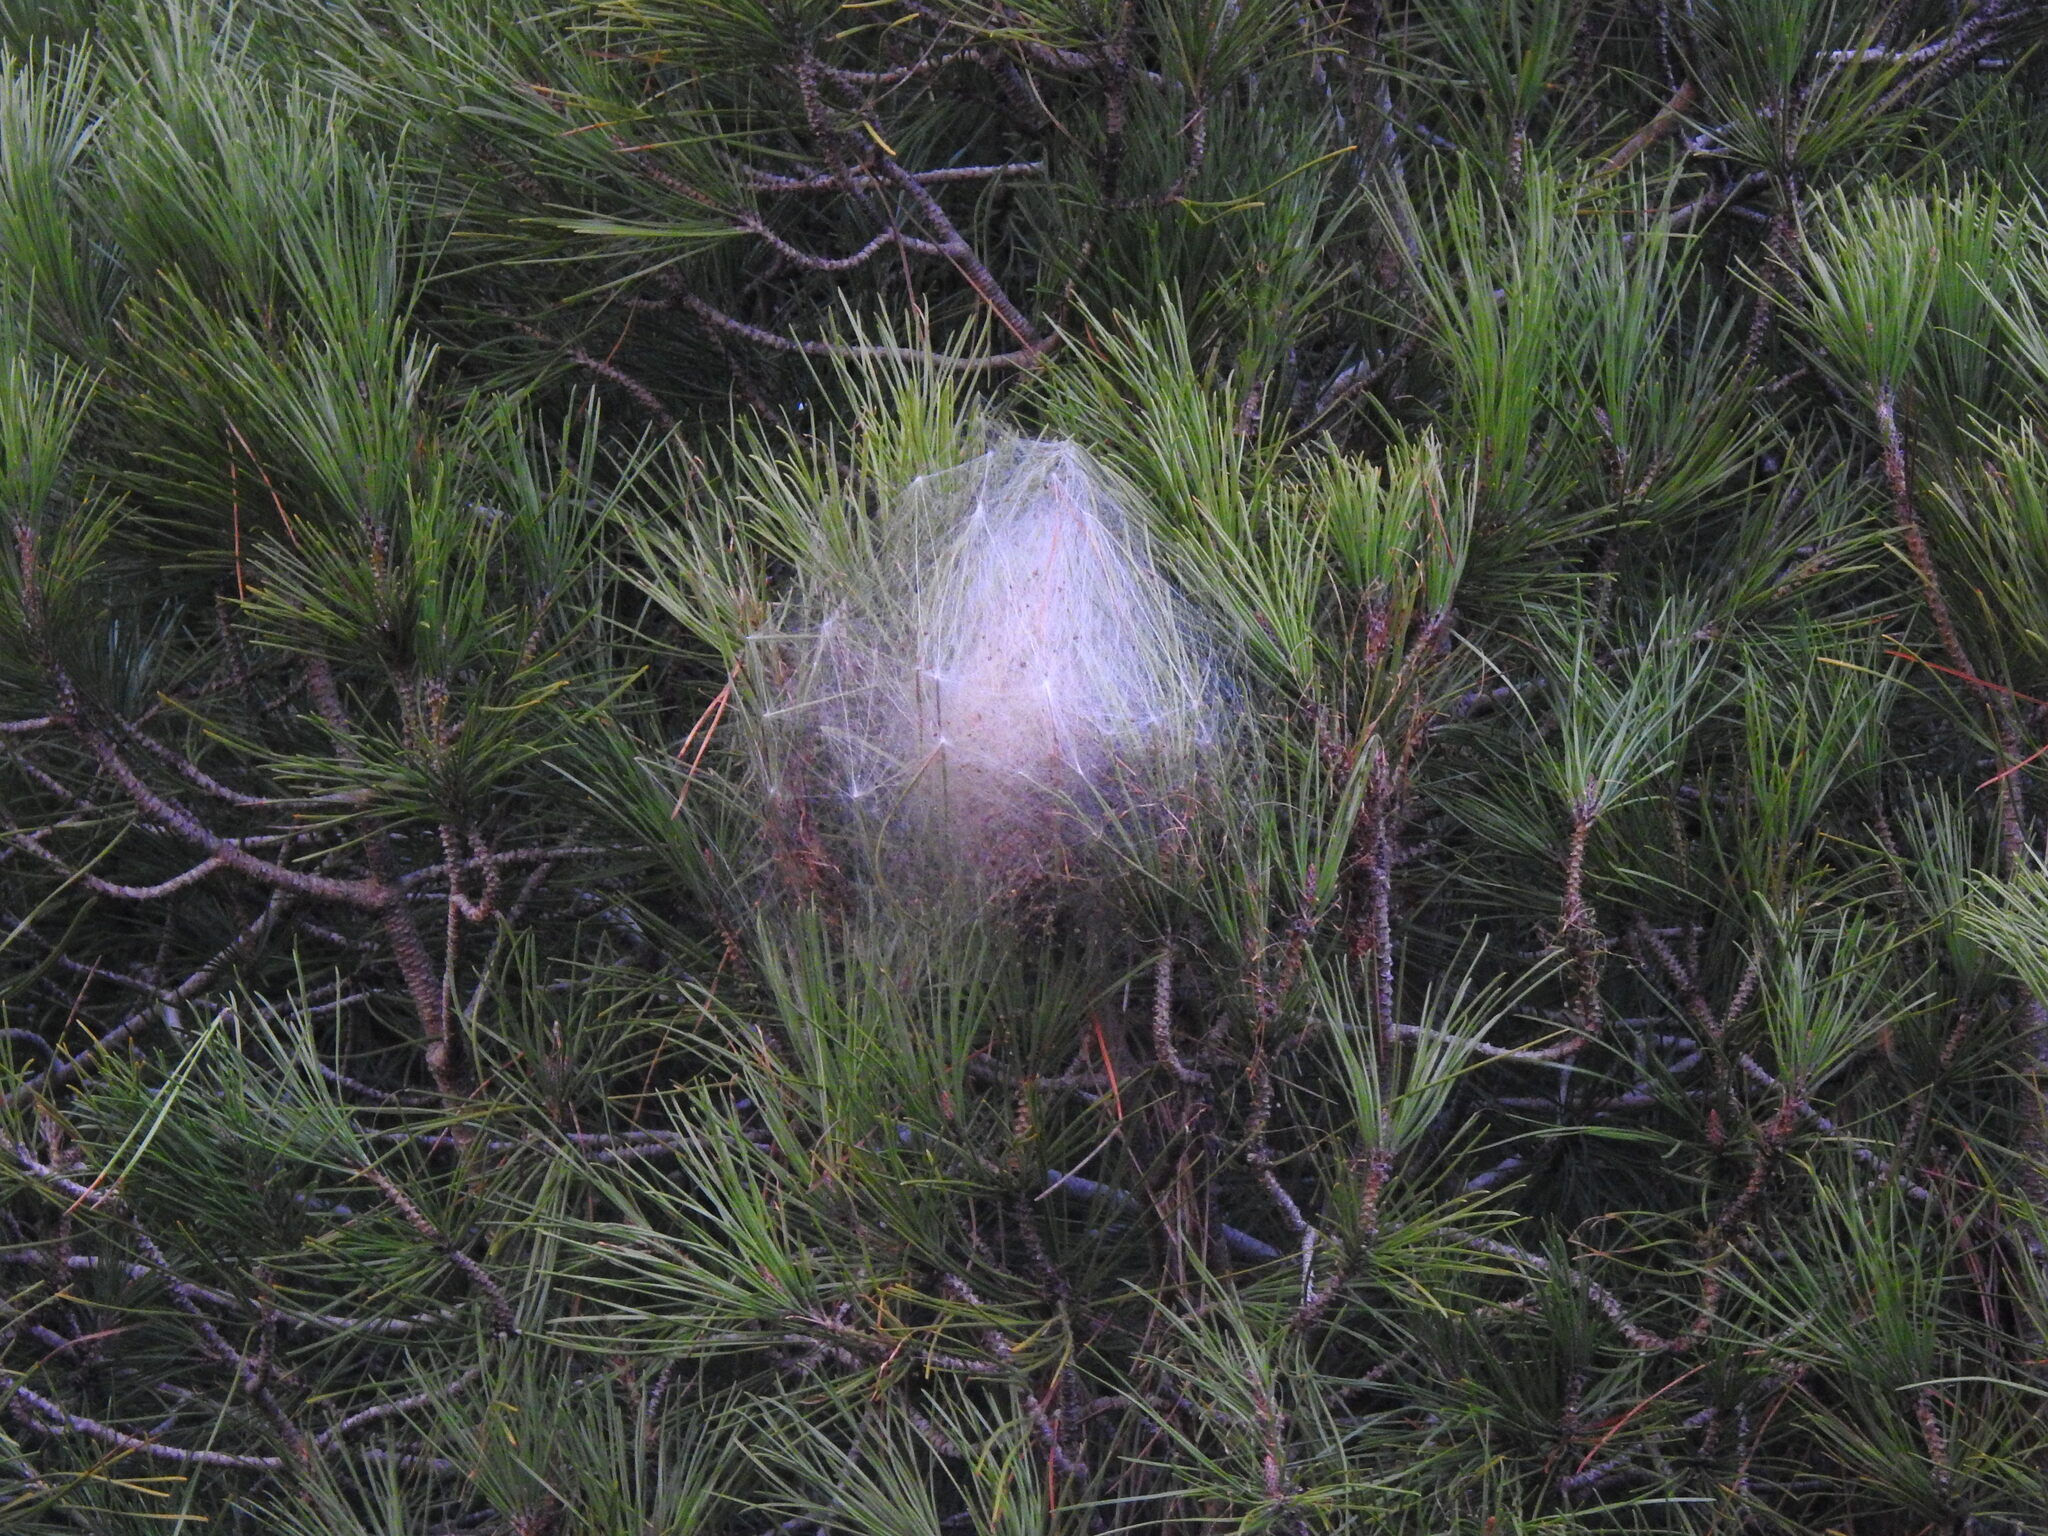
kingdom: Animalia
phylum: Arthropoda
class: Insecta
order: Lepidoptera
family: Notodontidae
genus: Thaumetopoea
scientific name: Thaumetopoea pityocampa
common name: Pine processionary
